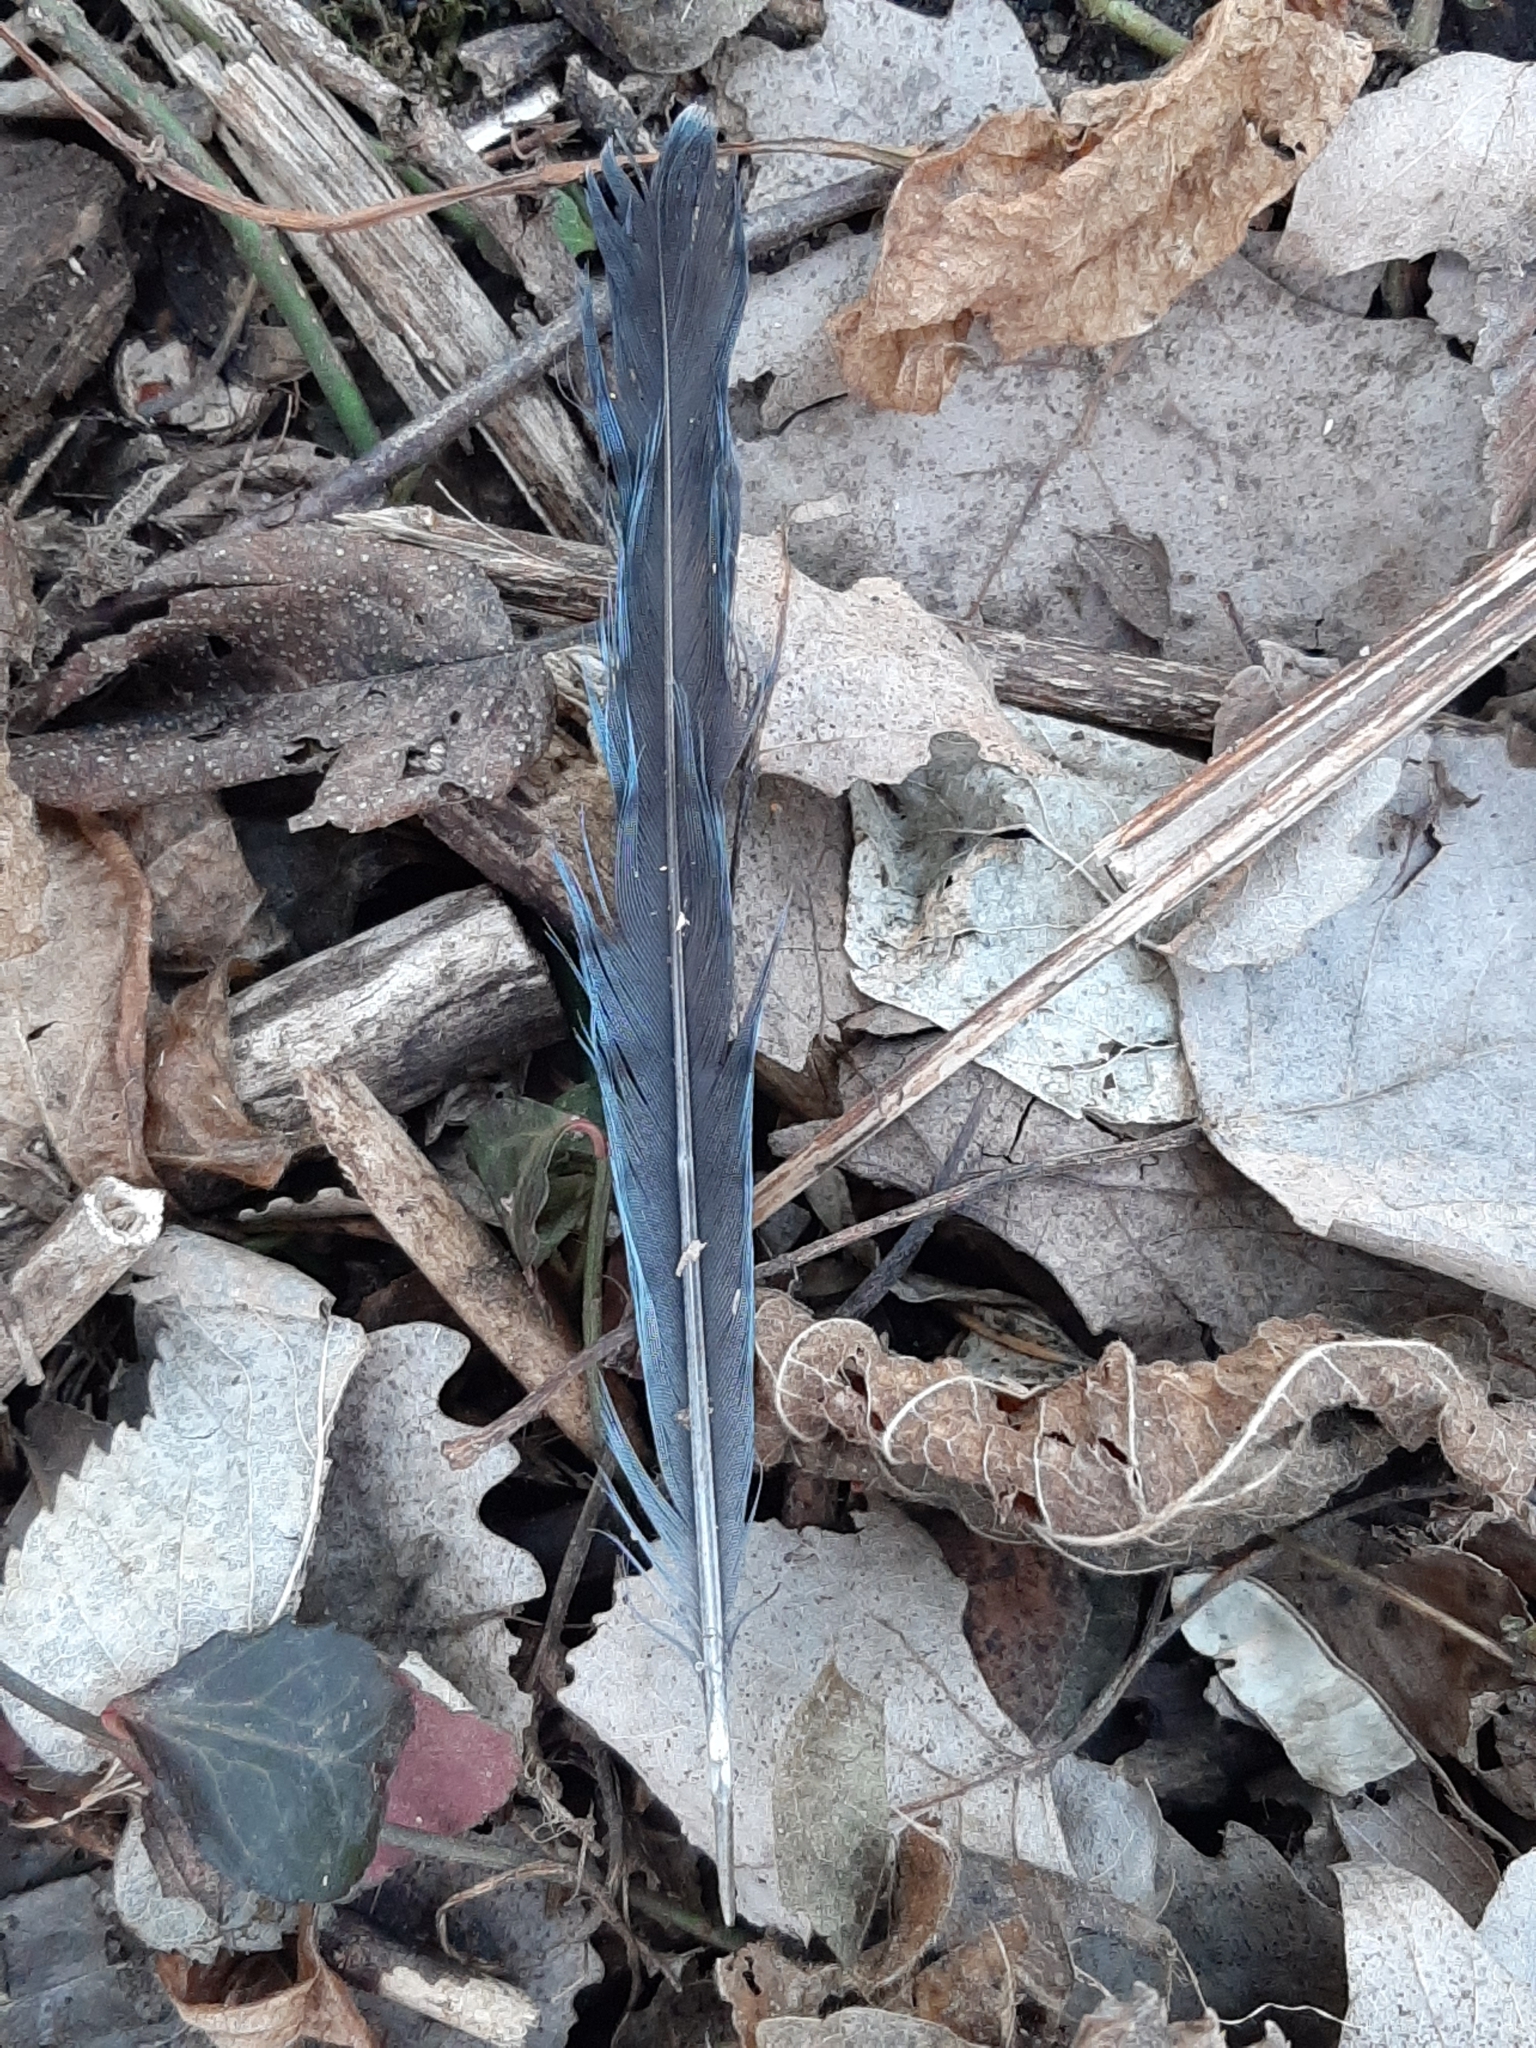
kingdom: Animalia
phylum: Chordata
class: Aves
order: Passeriformes
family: Corvidae
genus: Cyanocitta
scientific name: Cyanocitta cristata
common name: Blue jay
